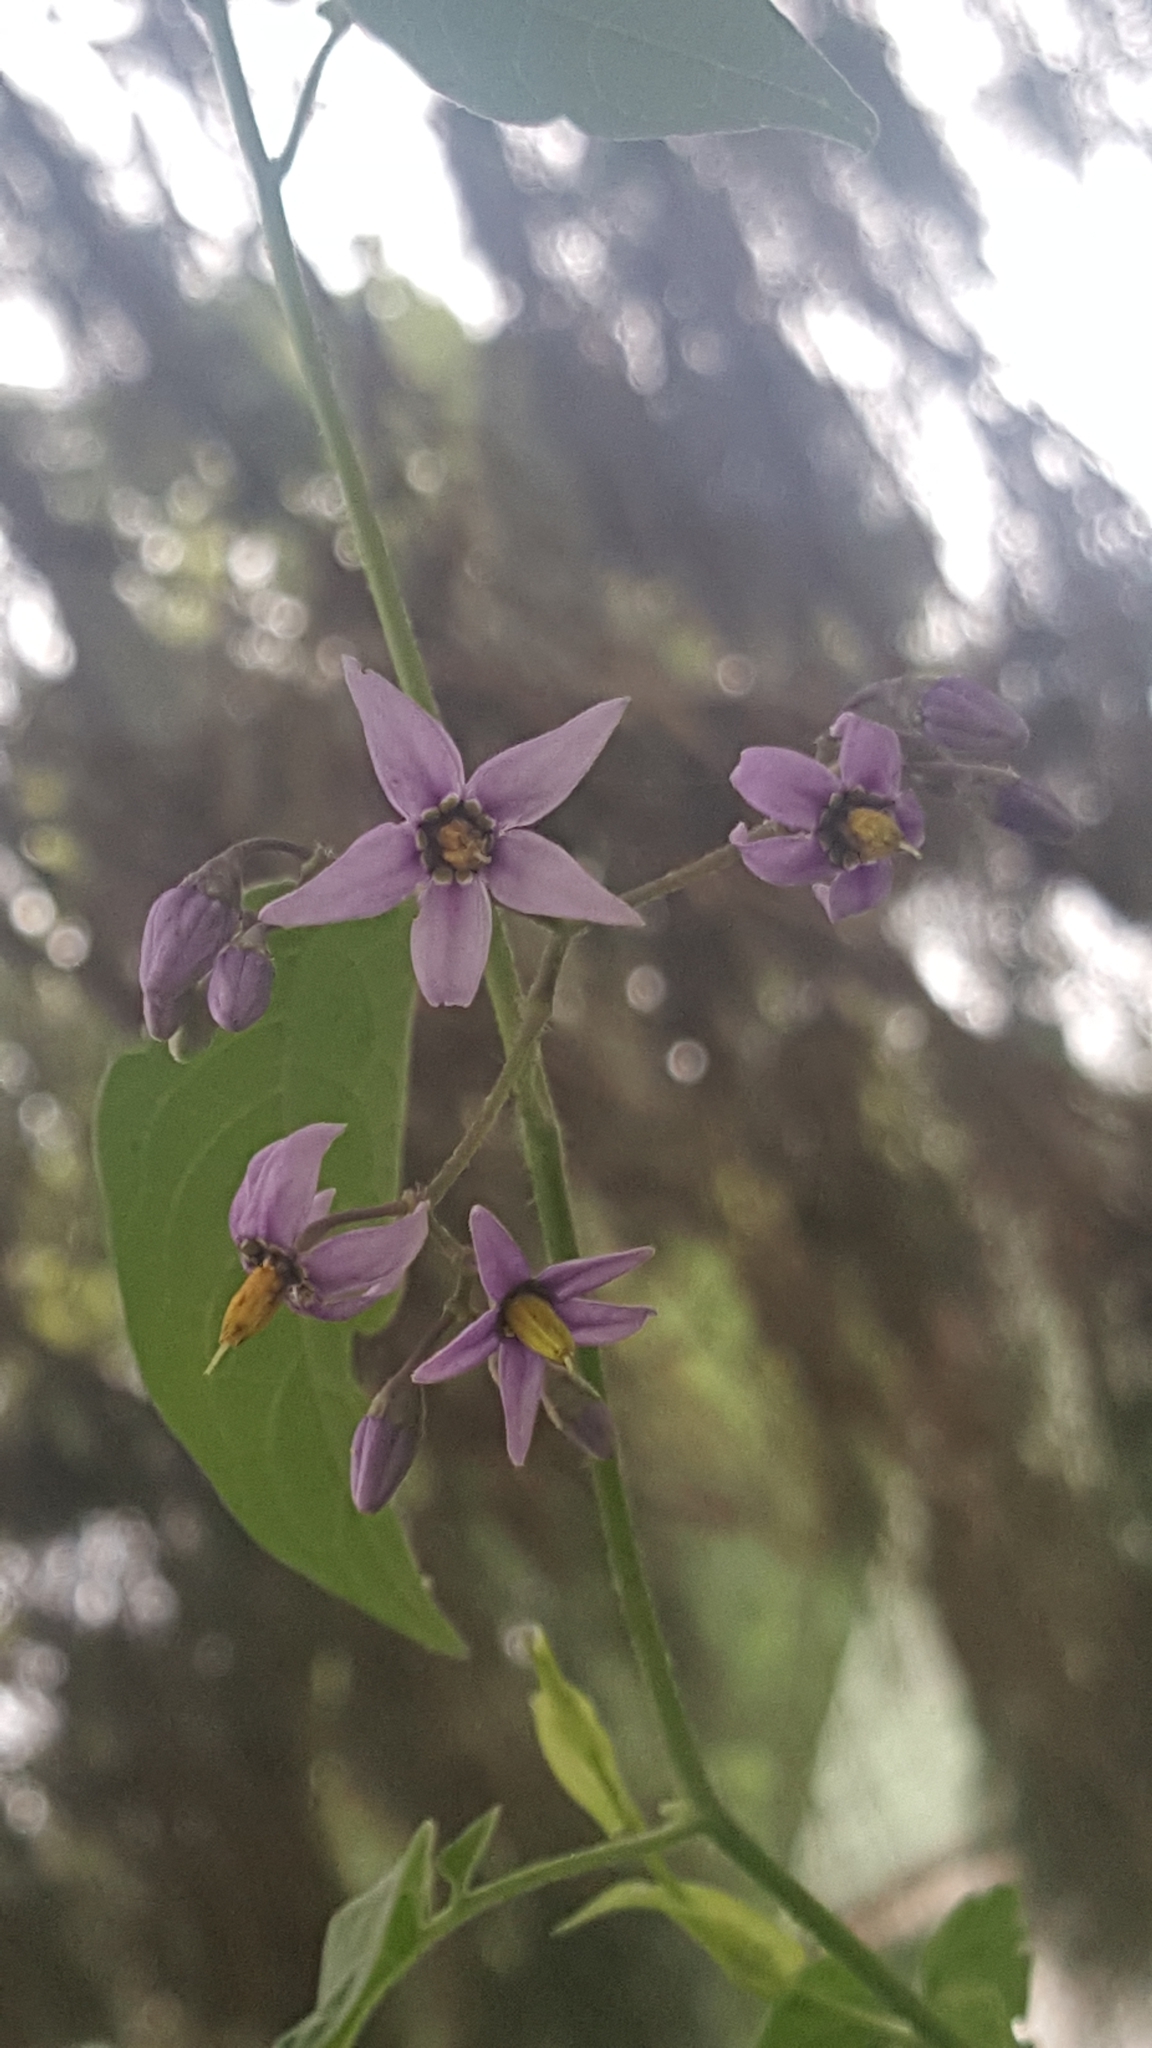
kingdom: Plantae
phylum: Tracheophyta
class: Magnoliopsida
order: Solanales
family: Solanaceae
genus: Solanum
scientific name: Solanum dulcamara
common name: Climbing nightshade
